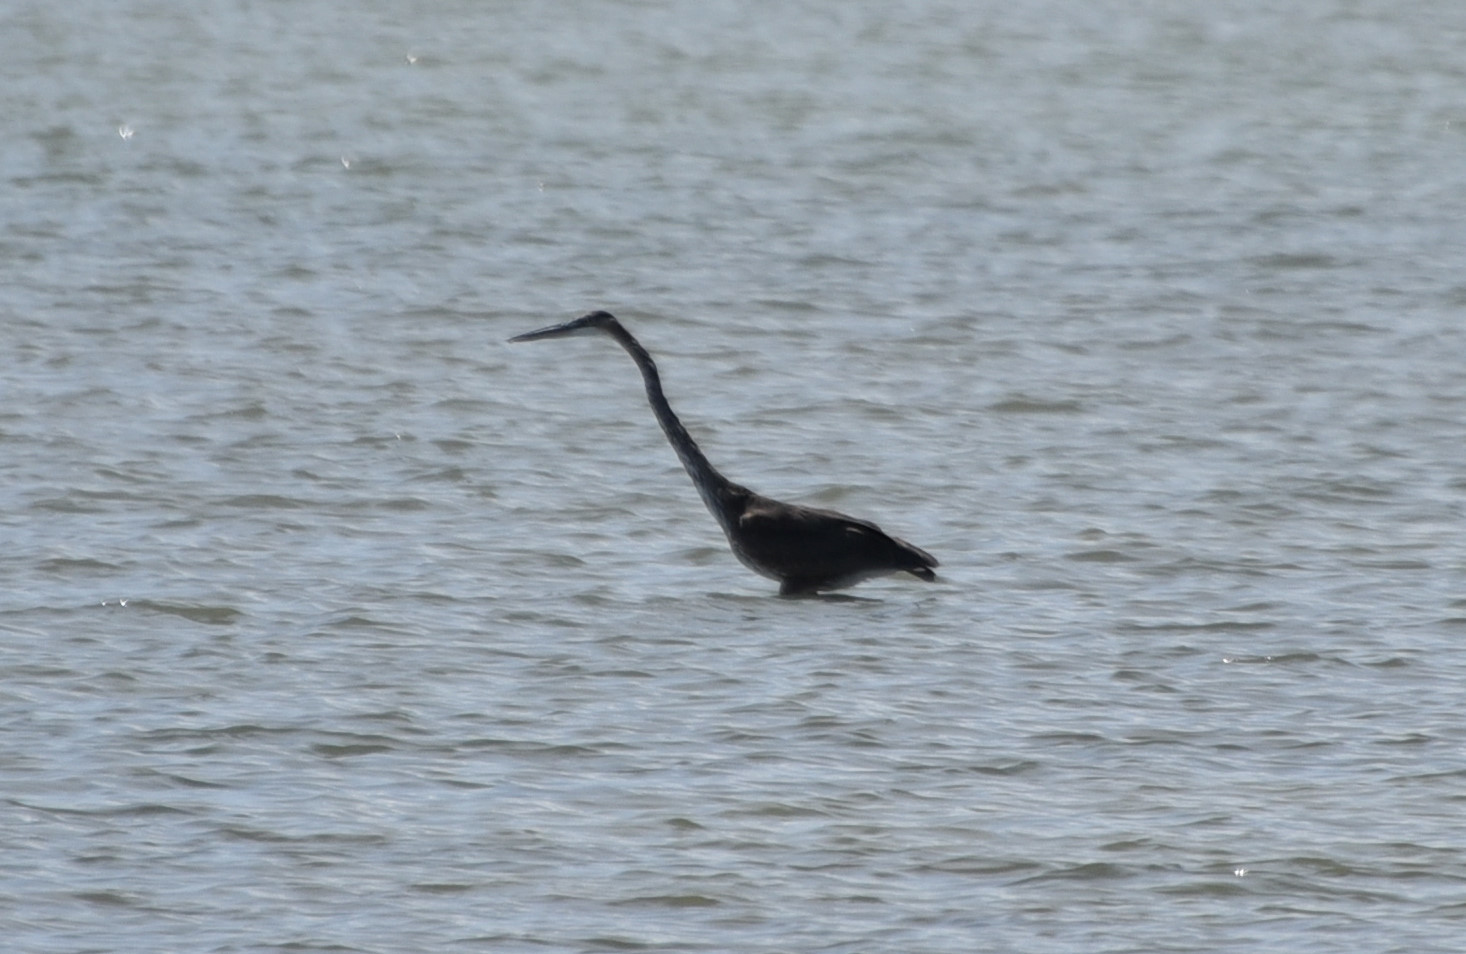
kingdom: Animalia
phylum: Chordata
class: Aves
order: Pelecaniformes
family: Ardeidae
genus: Ardea
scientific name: Ardea herodias
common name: Great blue heron
